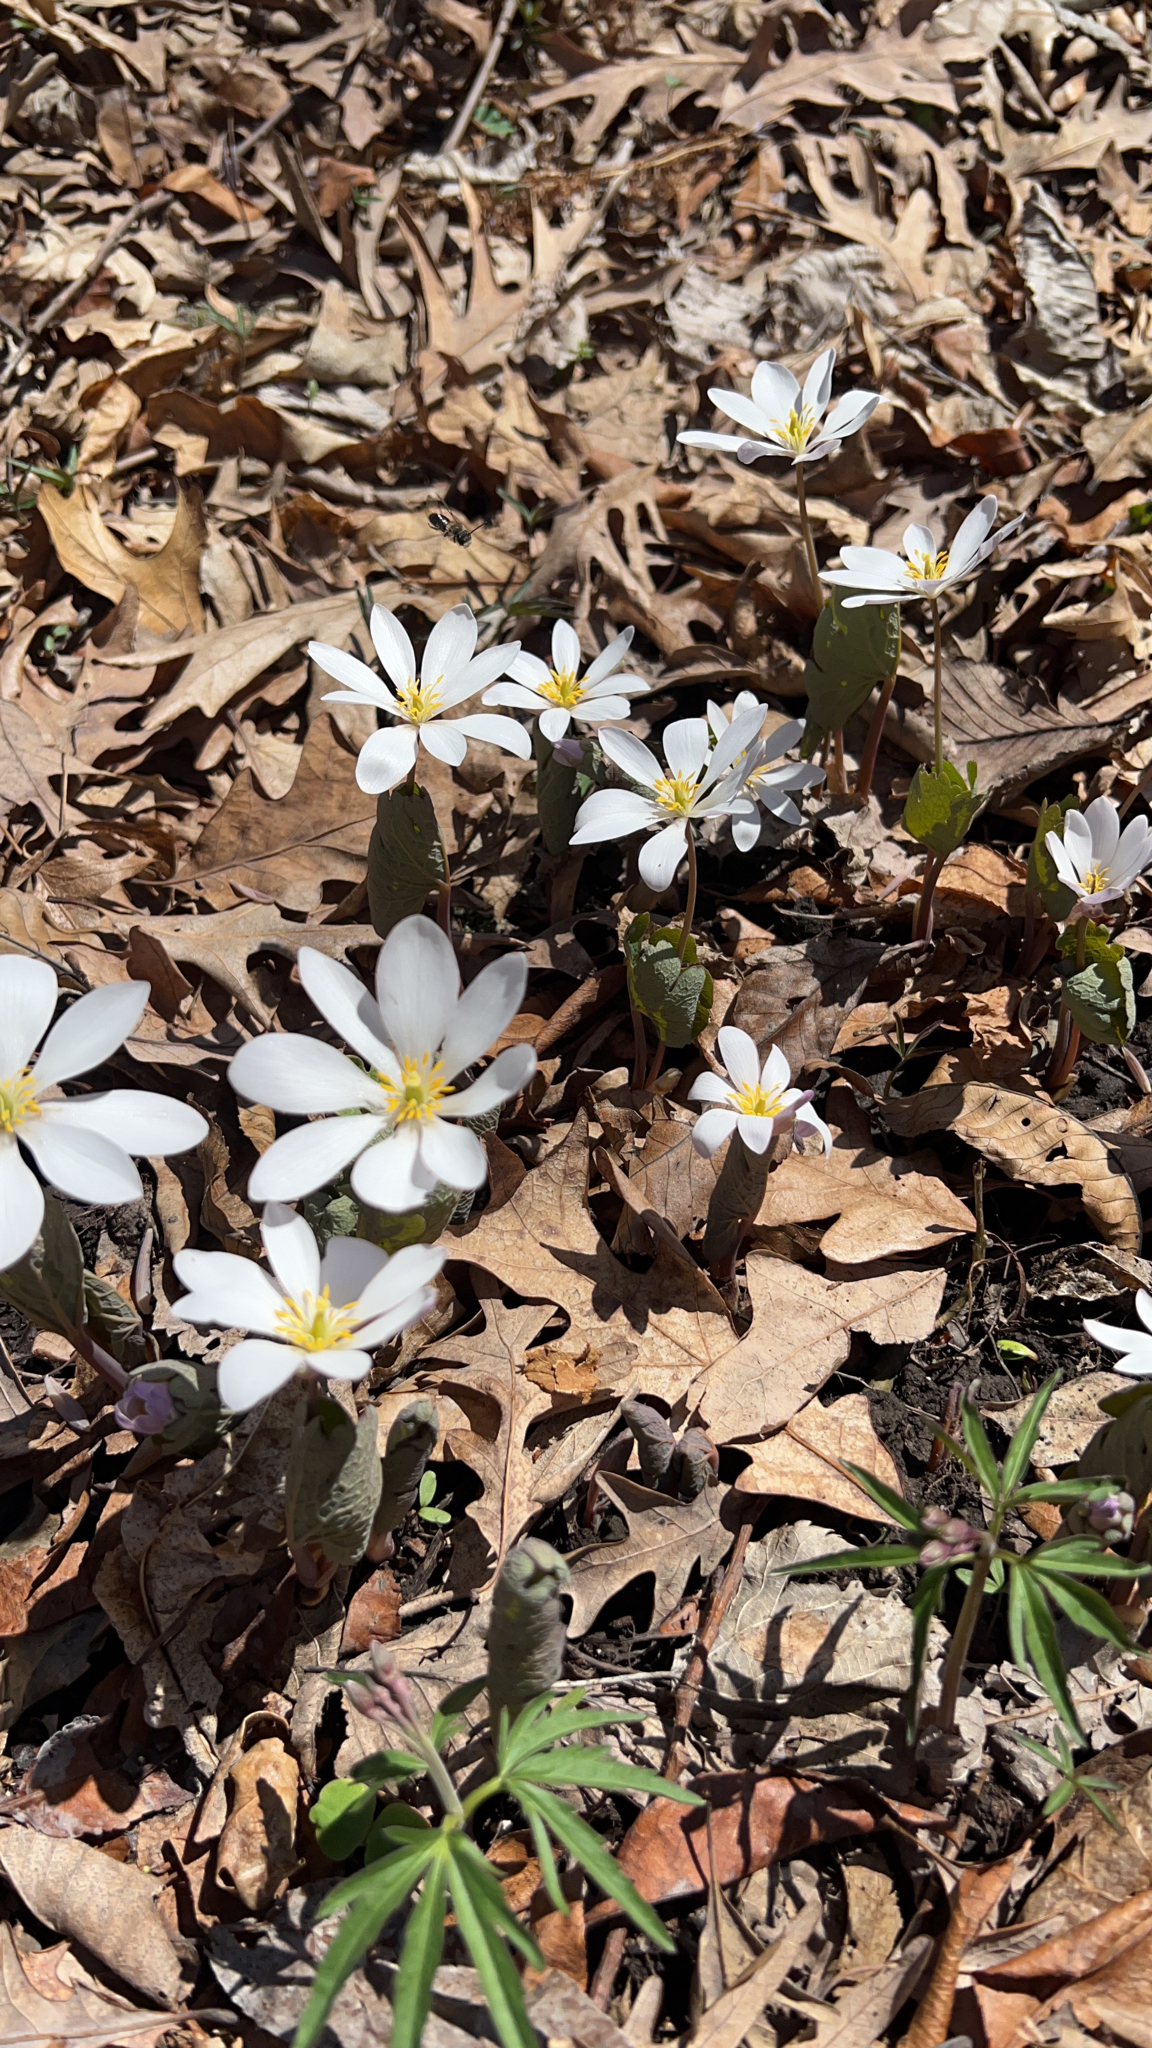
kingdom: Plantae
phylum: Tracheophyta
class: Magnoliopsida
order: Ranunculales
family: Papaveraceae
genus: Sanguinaria
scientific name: Sanguinaria canadensis
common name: Bloodroot
